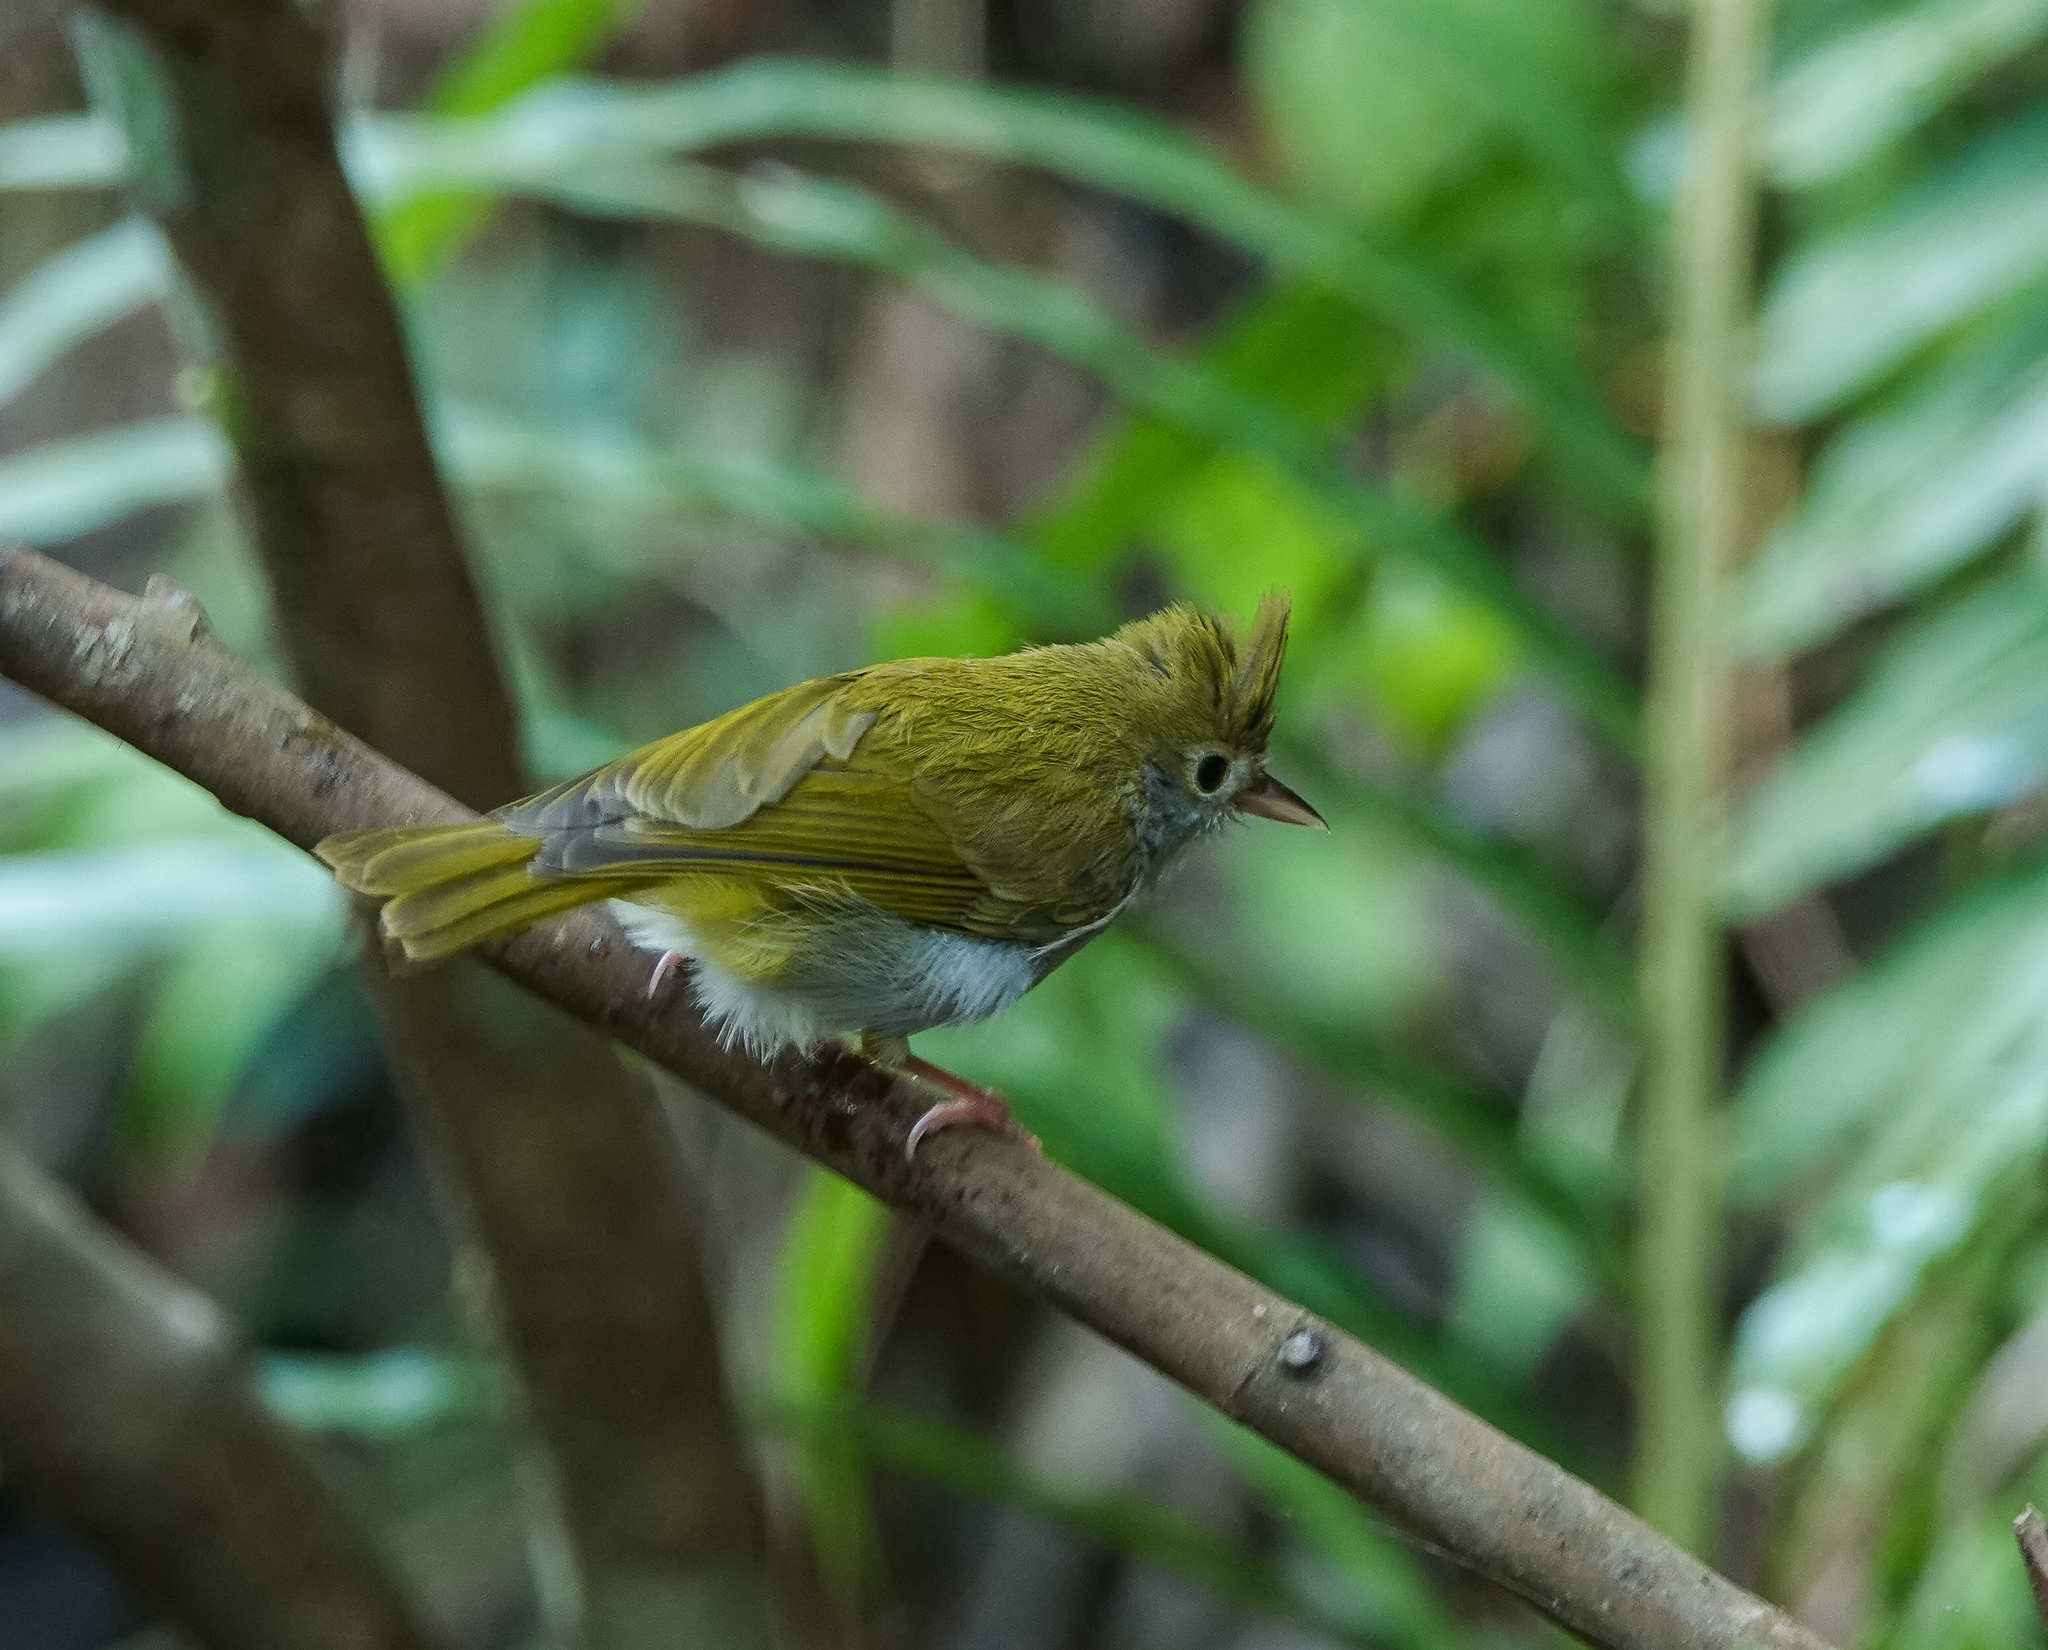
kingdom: Animalia
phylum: Chordata
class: Aves
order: Passeriformes
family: Vireonidae
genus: Erpornis
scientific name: Erpornis zantholeuca
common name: White-bellied erpornis
